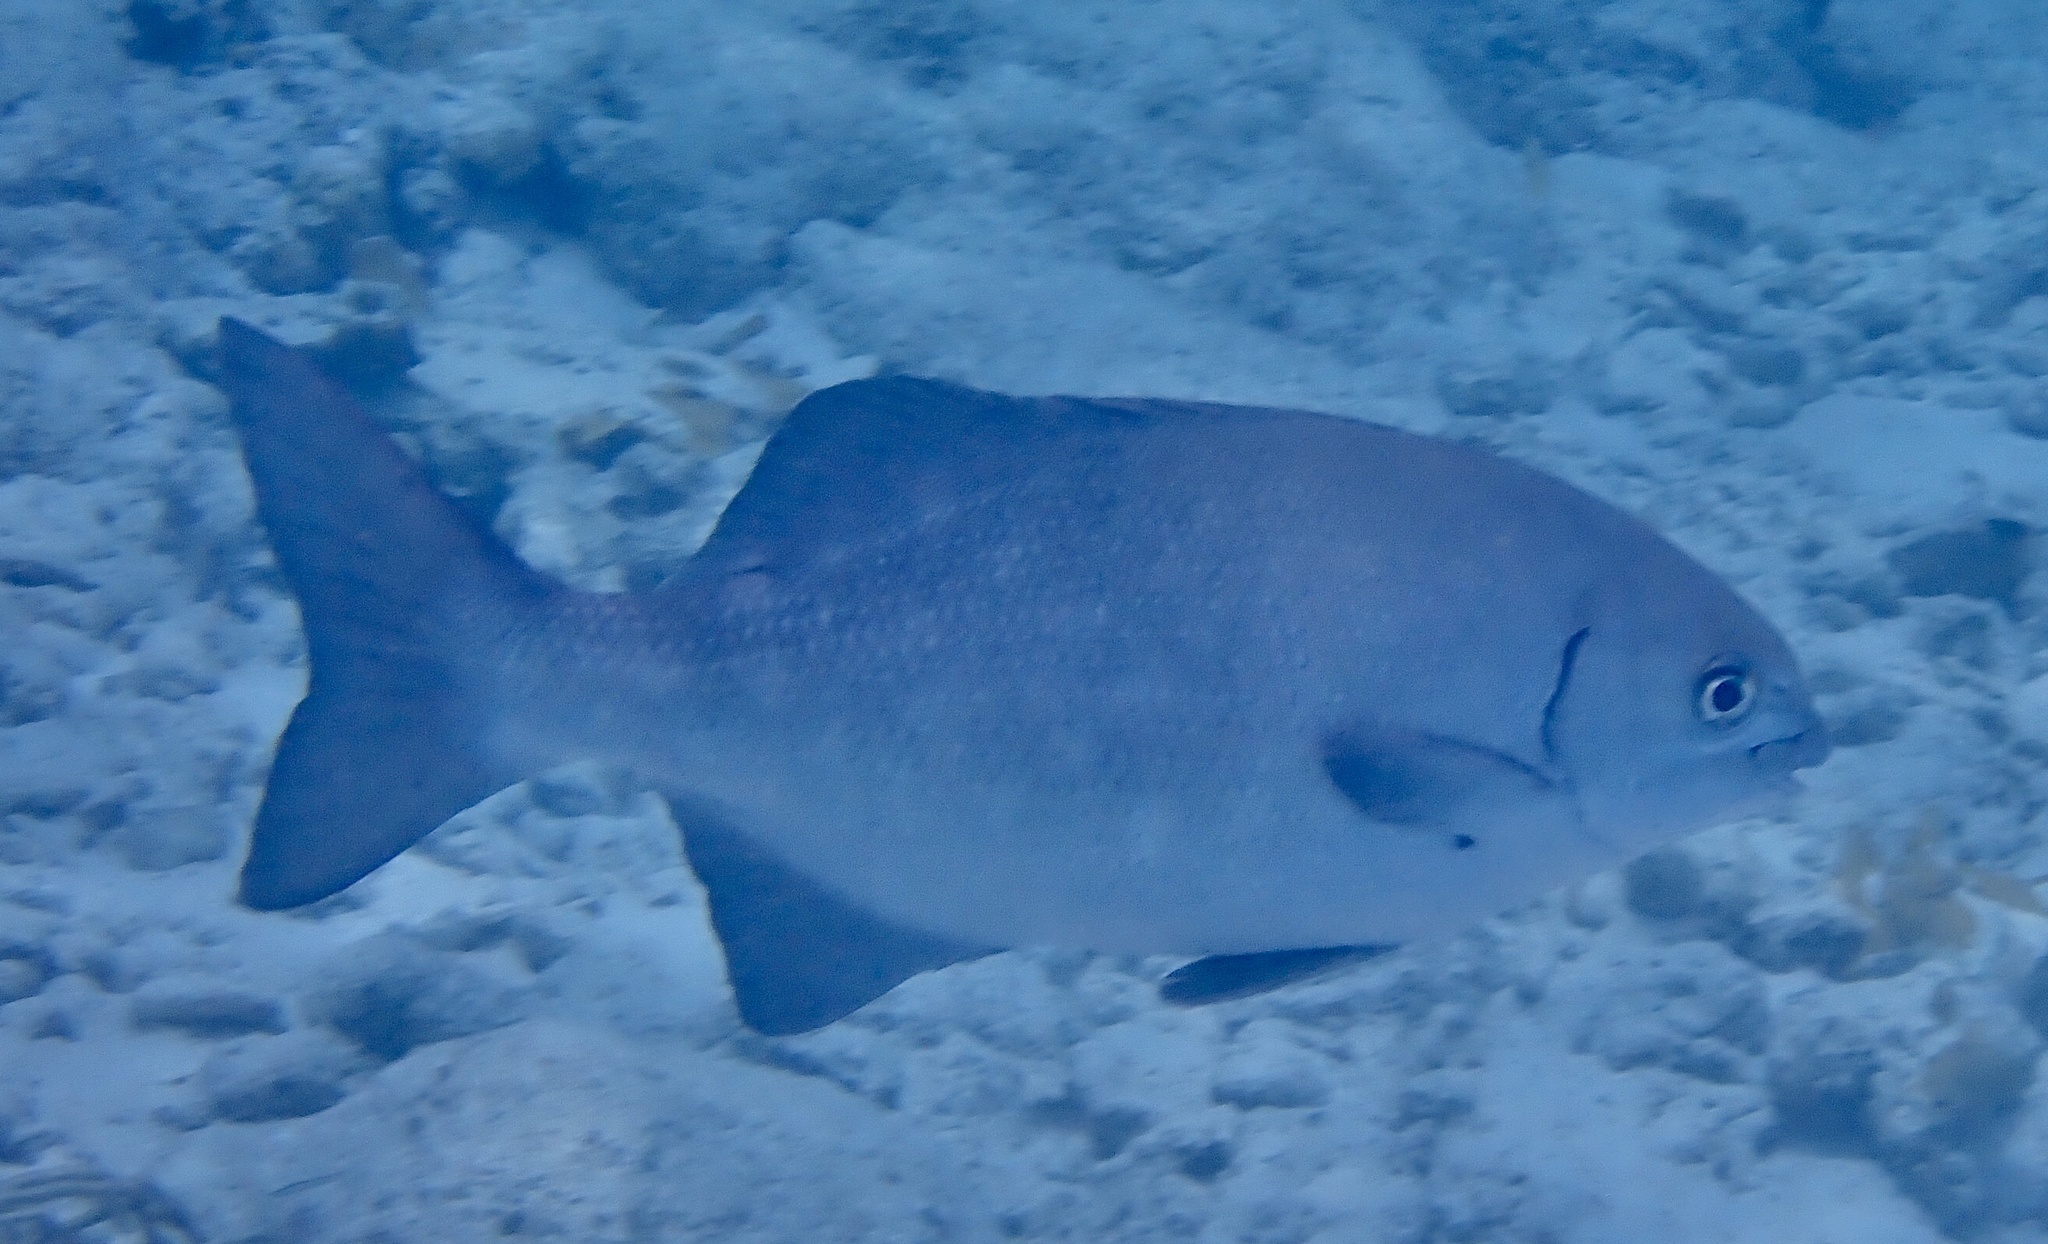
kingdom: Animalia
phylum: Chordata
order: Perciformes
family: Kyphosidae
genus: Kyphosus
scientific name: Kyphosus cinerascens
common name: Topsail drummer
